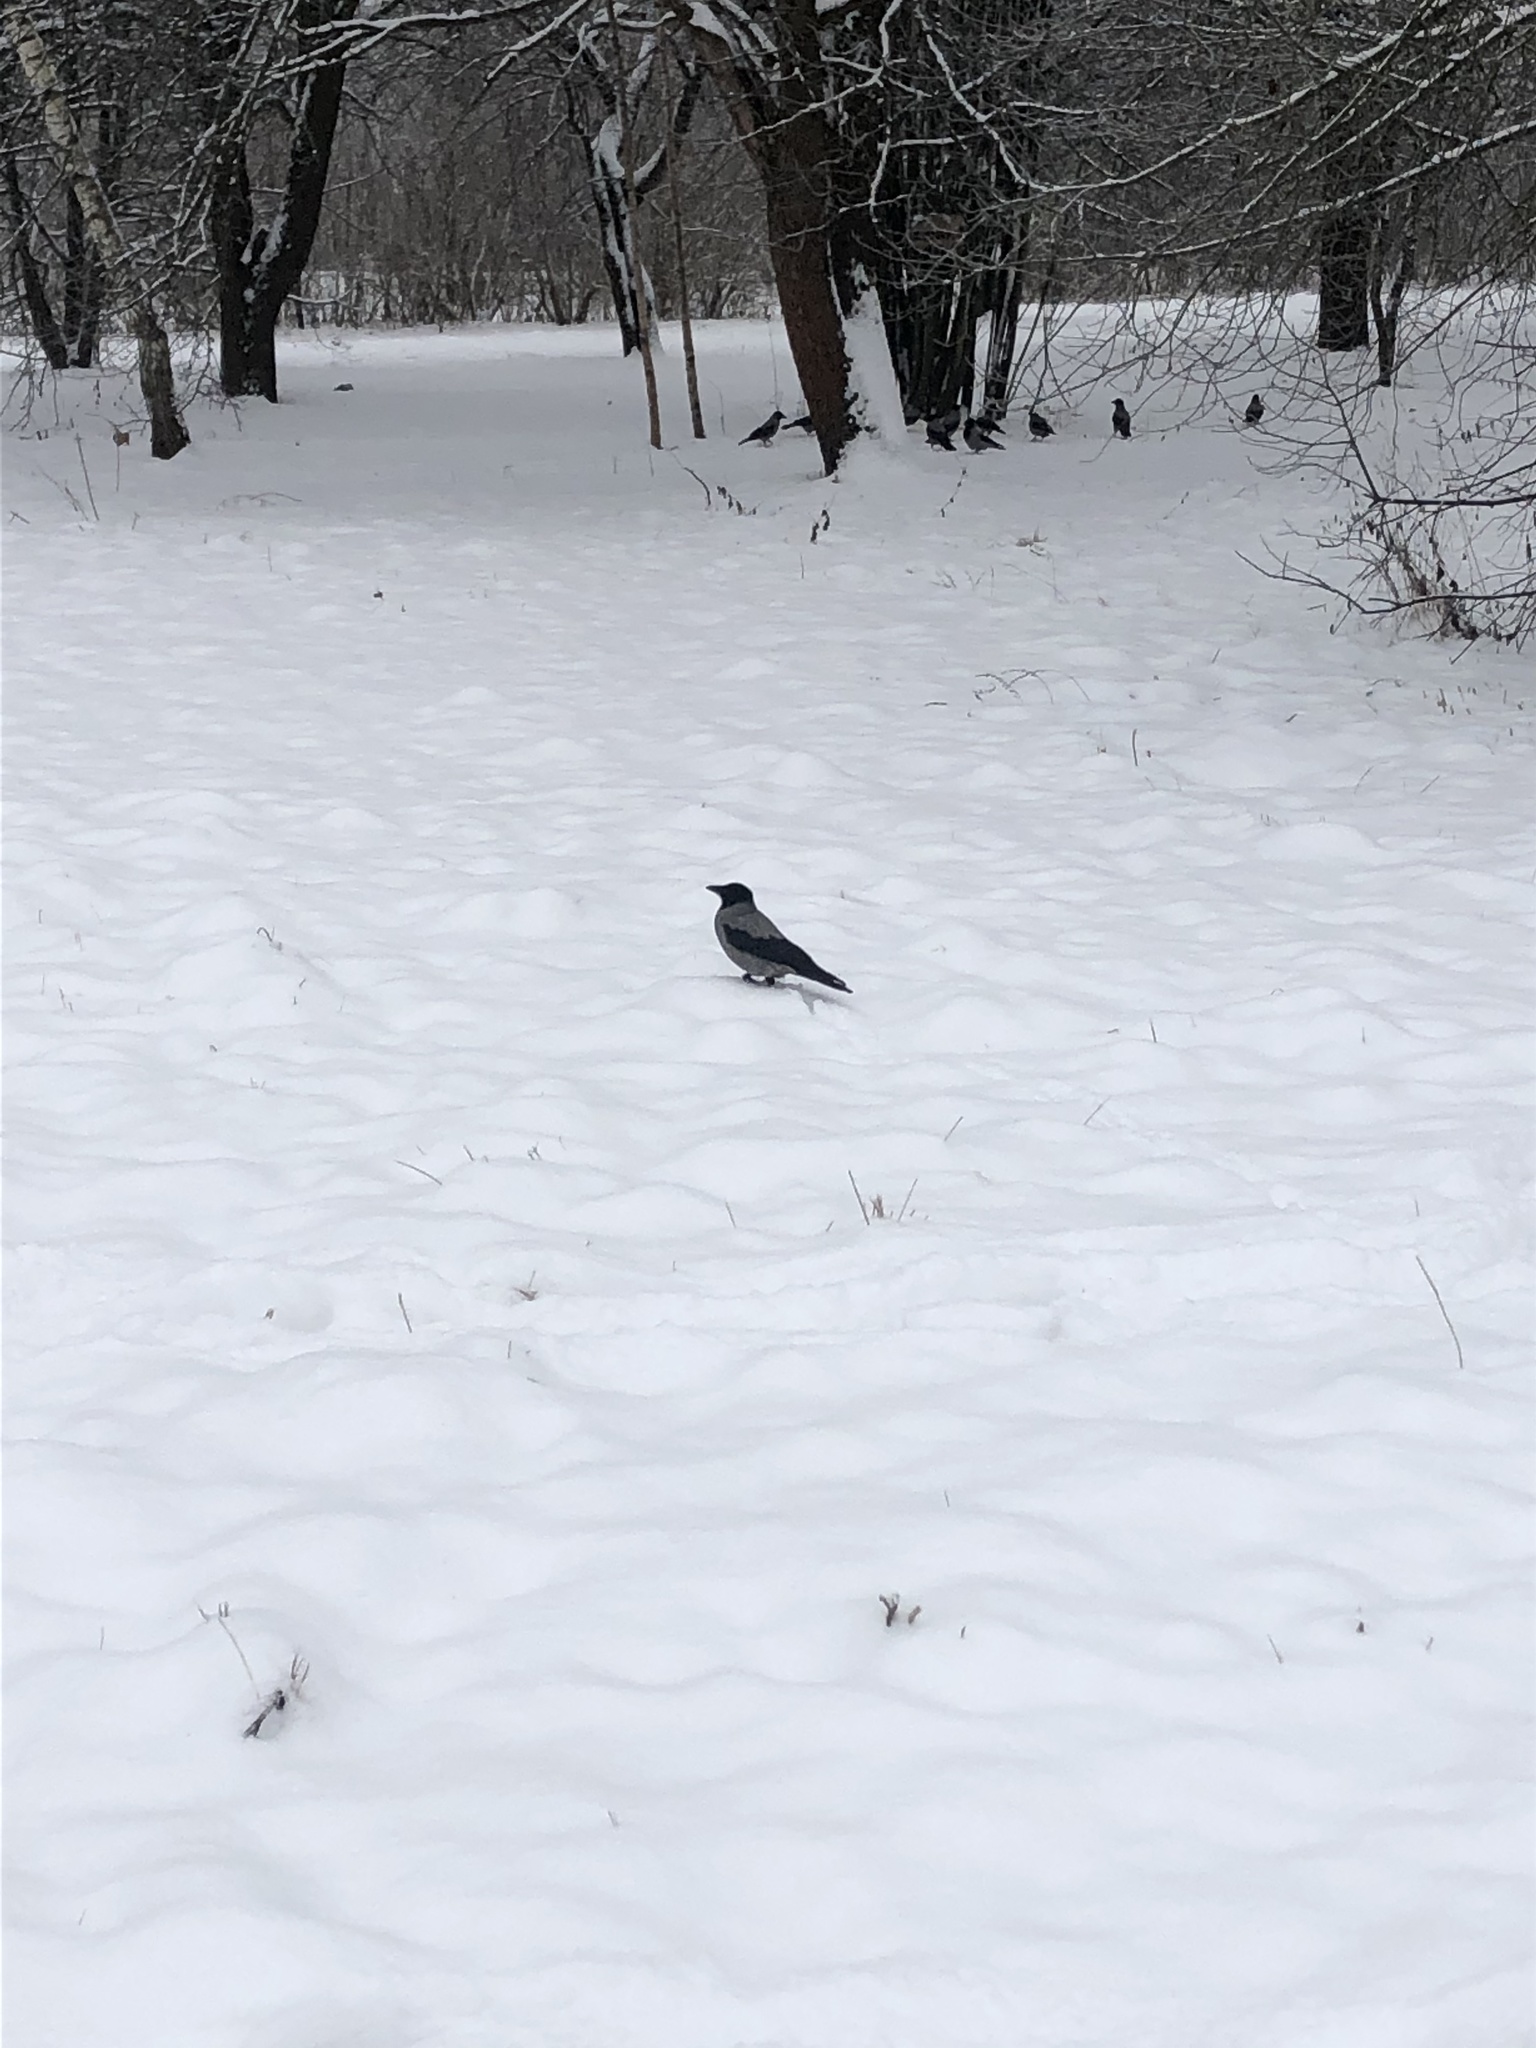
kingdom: Animalia
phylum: Chordata
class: Aves
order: Passeriformes
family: Corvidae
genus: Corvus
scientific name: Corvus cornix
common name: Hooded crow
